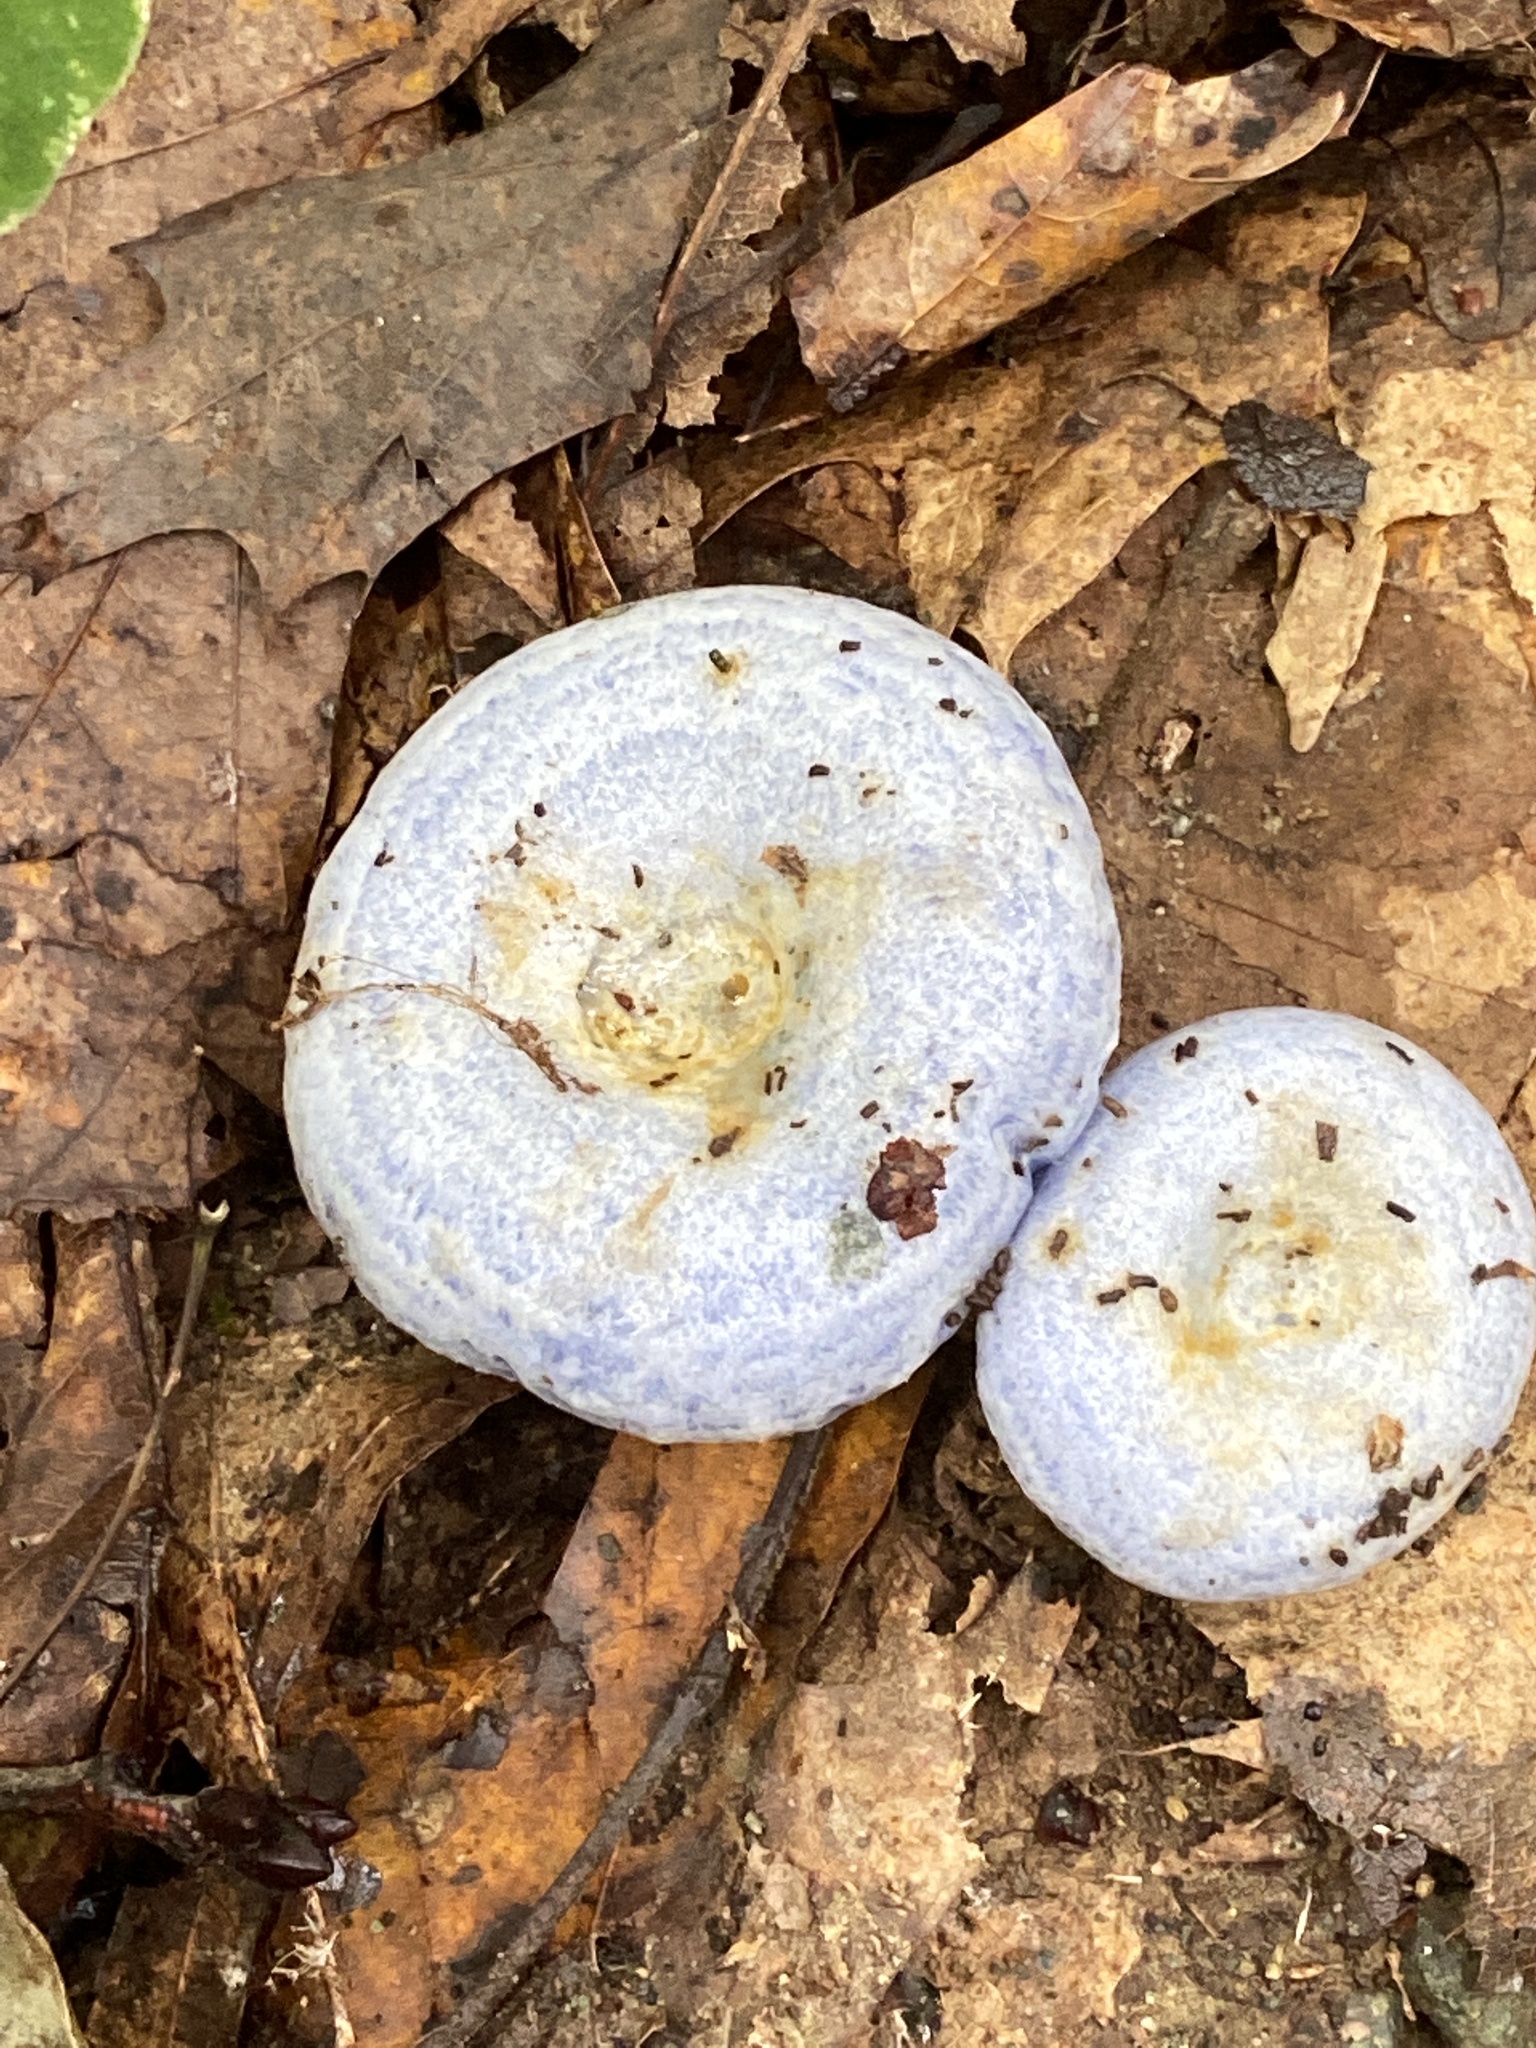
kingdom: Fungi
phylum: Basidiomycota
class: Agaricomycetes
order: Russulales
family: Russulaceae
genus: Lactarius
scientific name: Lactarius indigo
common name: Indigo milk cap
